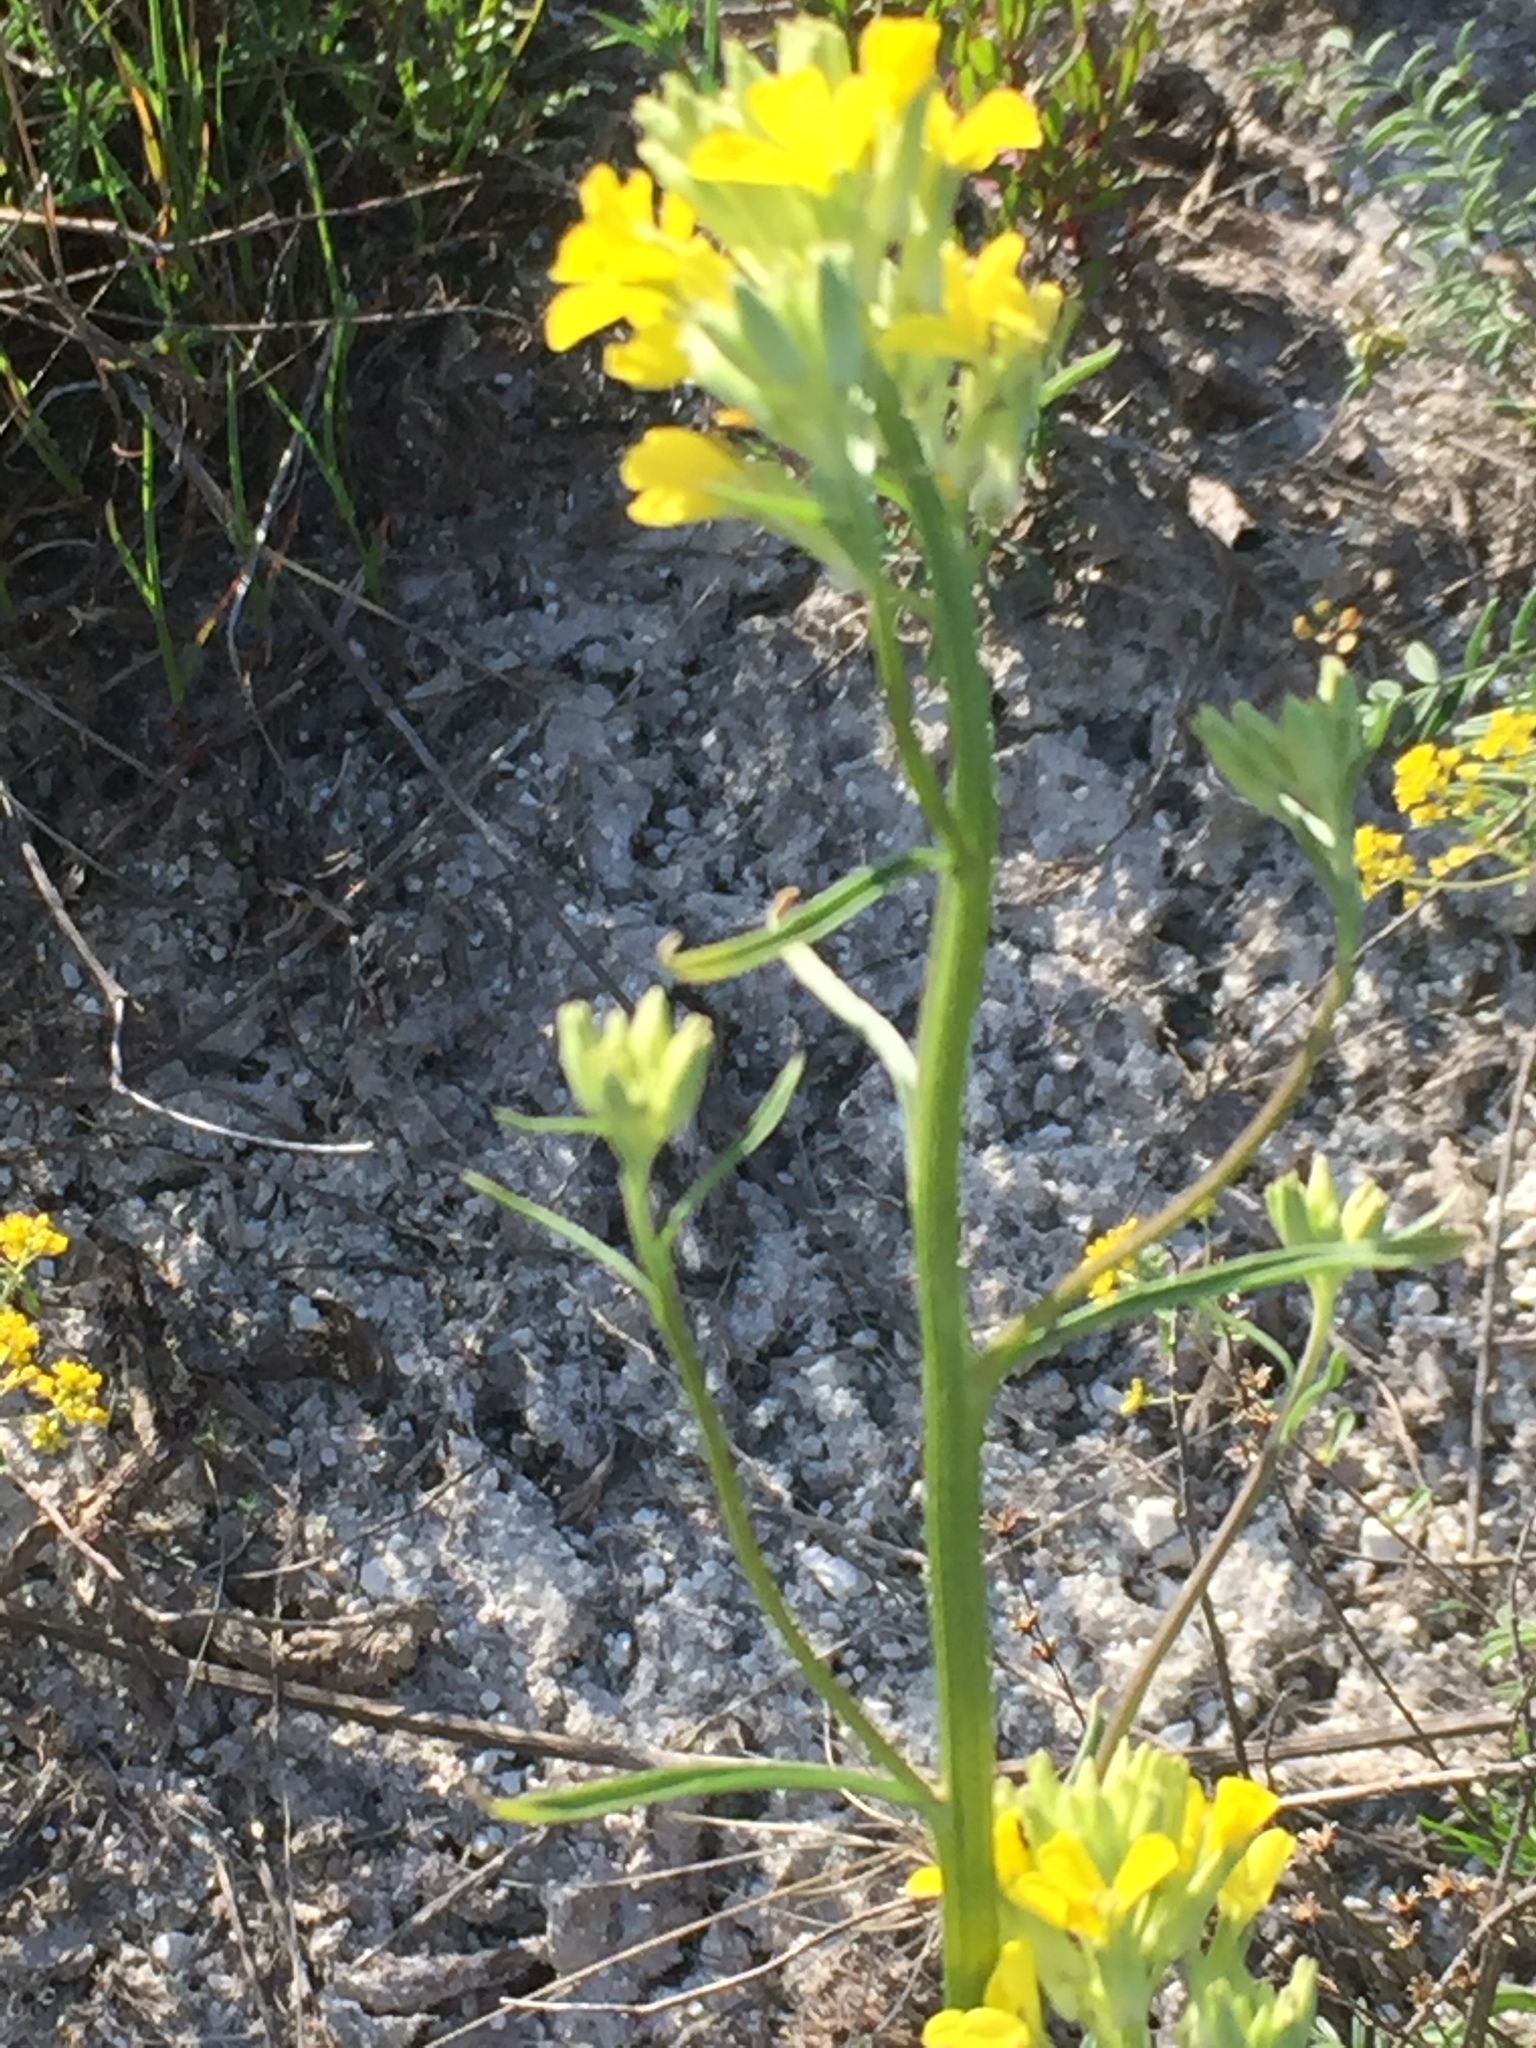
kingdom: Plantae
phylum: Tracheophyta
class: Magnoliopsida
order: Brassicales
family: Brassicaceae
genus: Erysimum
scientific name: Erysimum diffusum
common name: Diffuse wallflower
